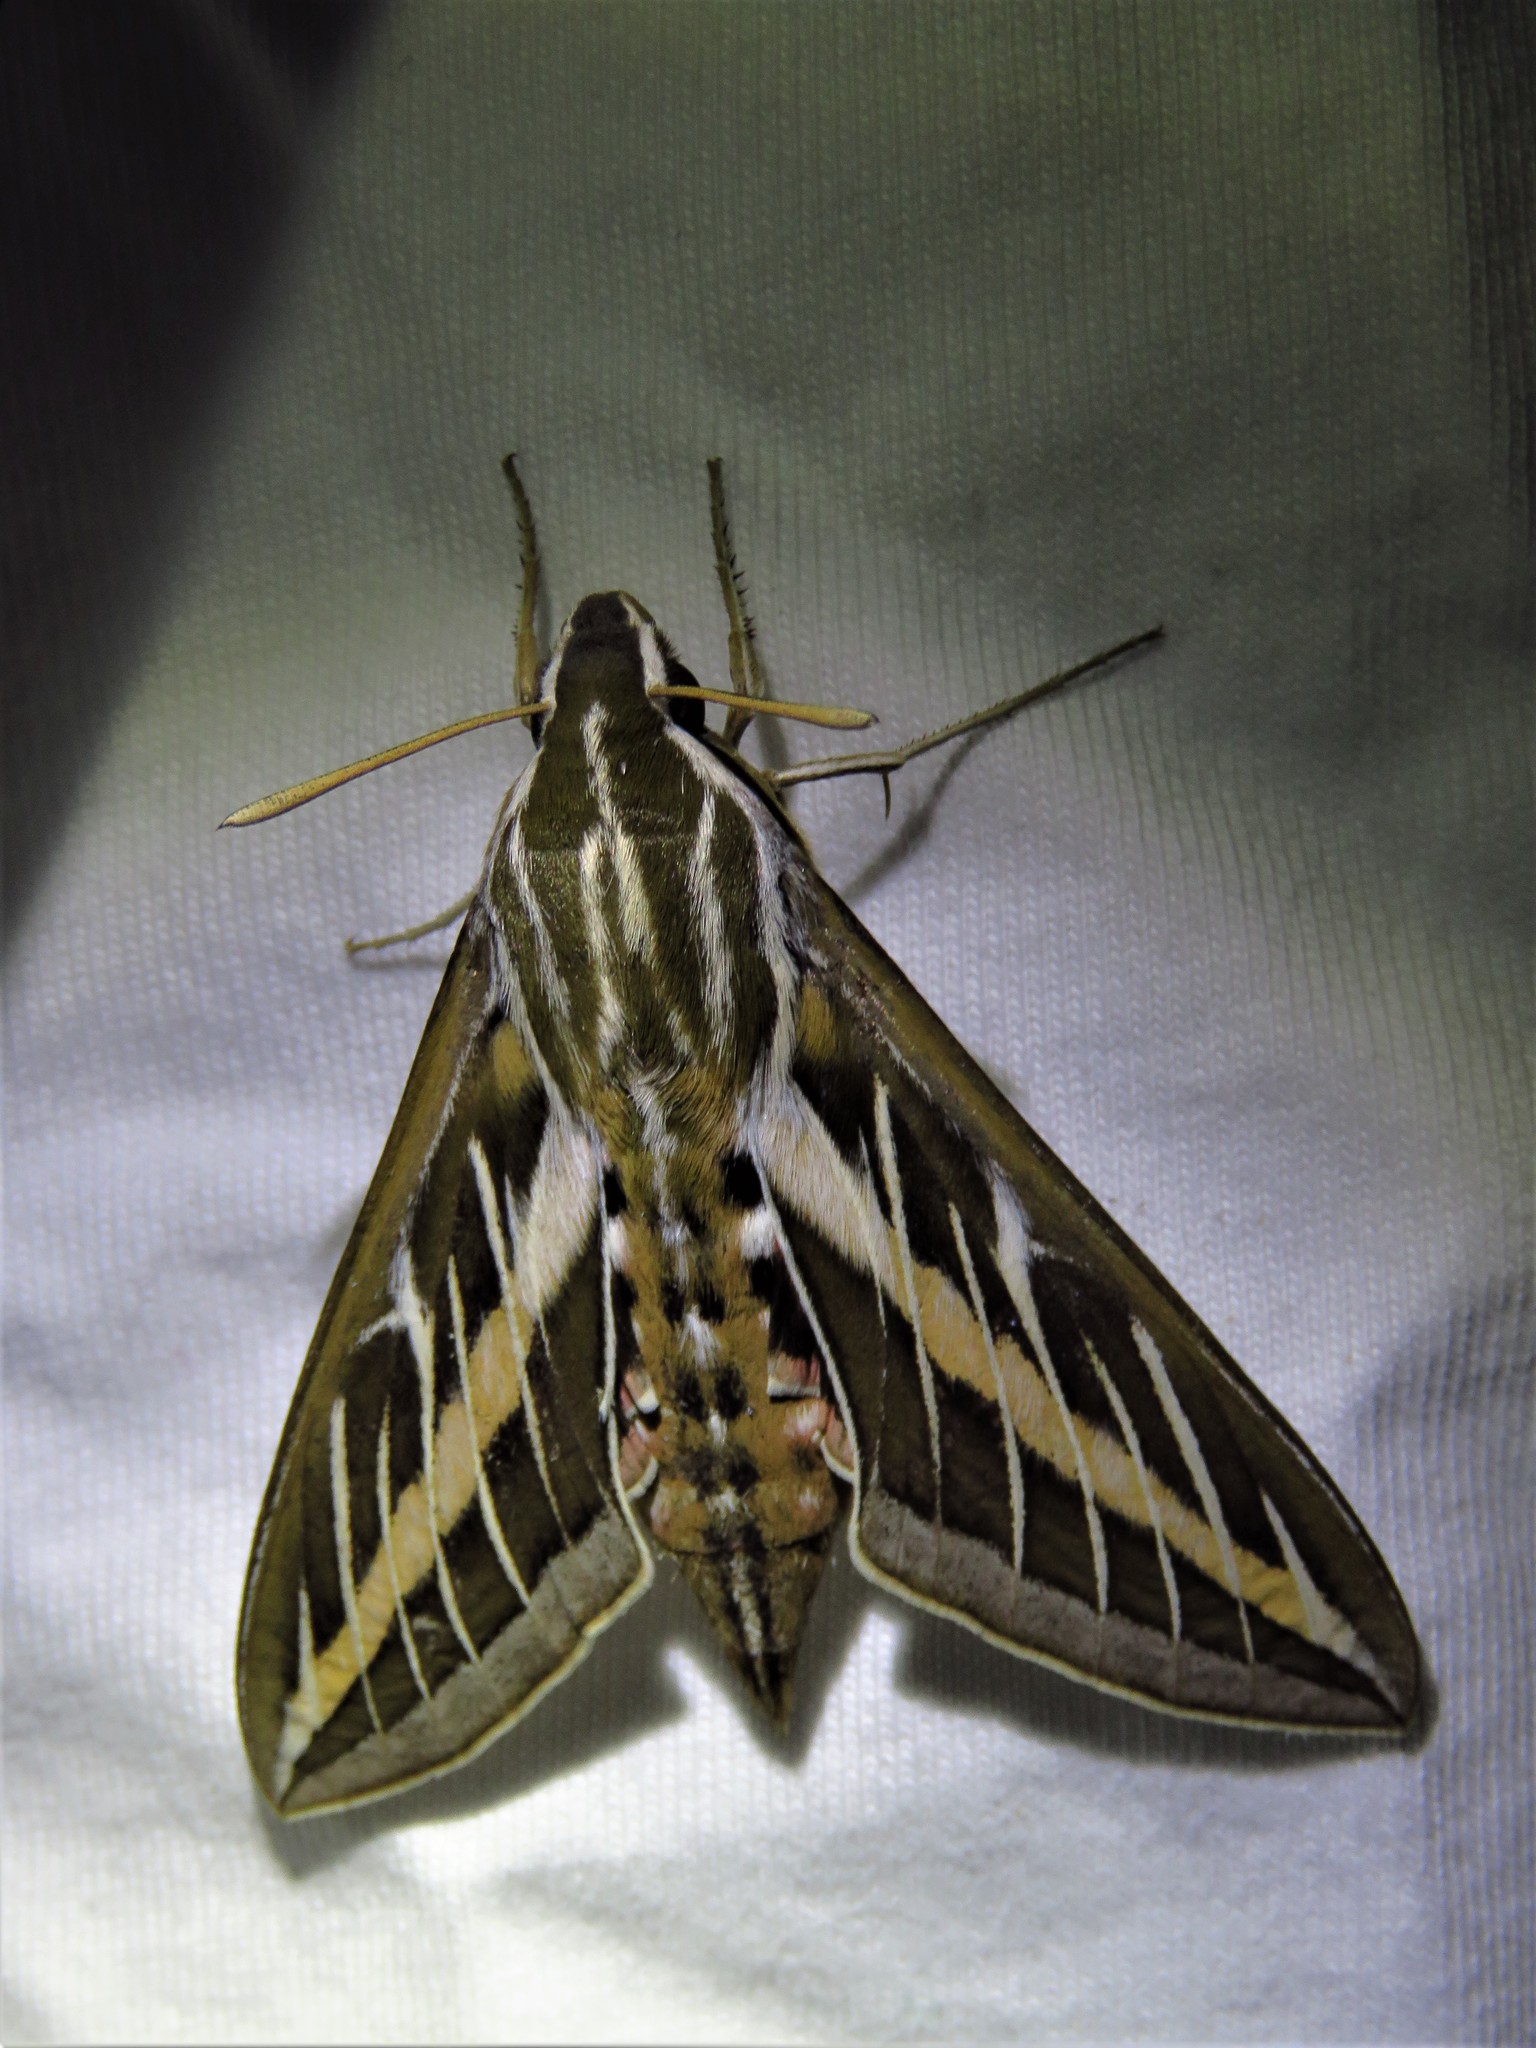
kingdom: Animalia
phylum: Arthropoda
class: Insecta
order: Lepidoptera
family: Sphingidae
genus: Hyles
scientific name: Hyles lineata
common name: White-lined sphinx
